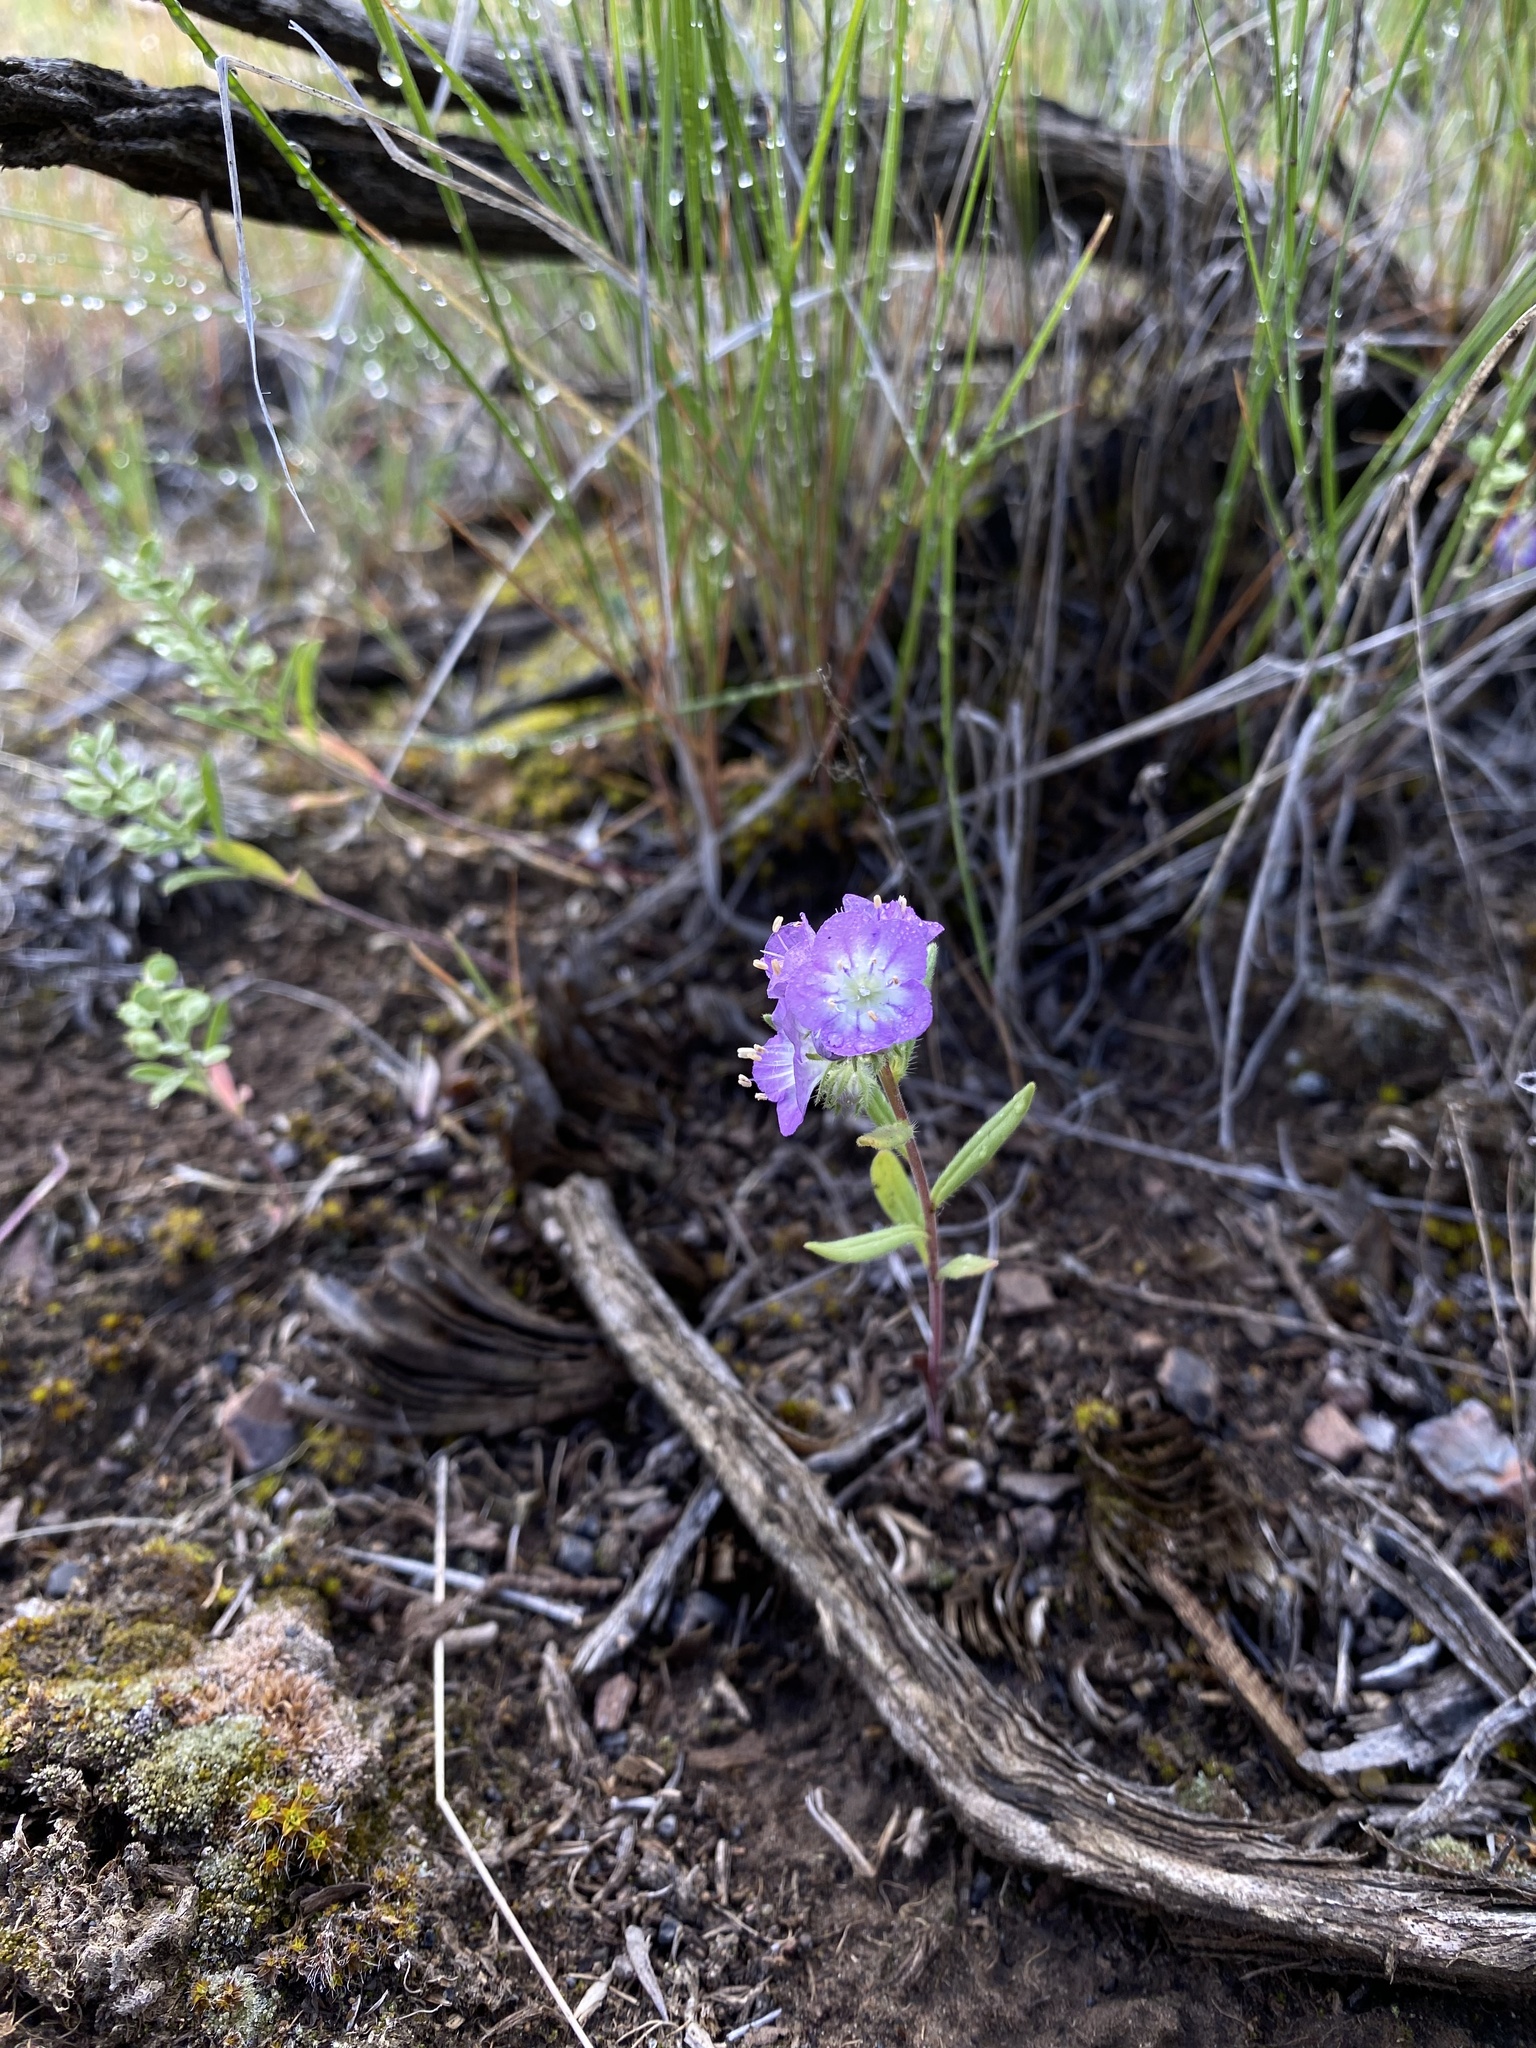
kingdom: Plantae
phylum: Tracheophyta
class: Magnoliopsida
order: Boraginales
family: Hydrophyllaceae
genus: Phacelia
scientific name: Phacelia linearis
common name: Linear-leaved phacelia
